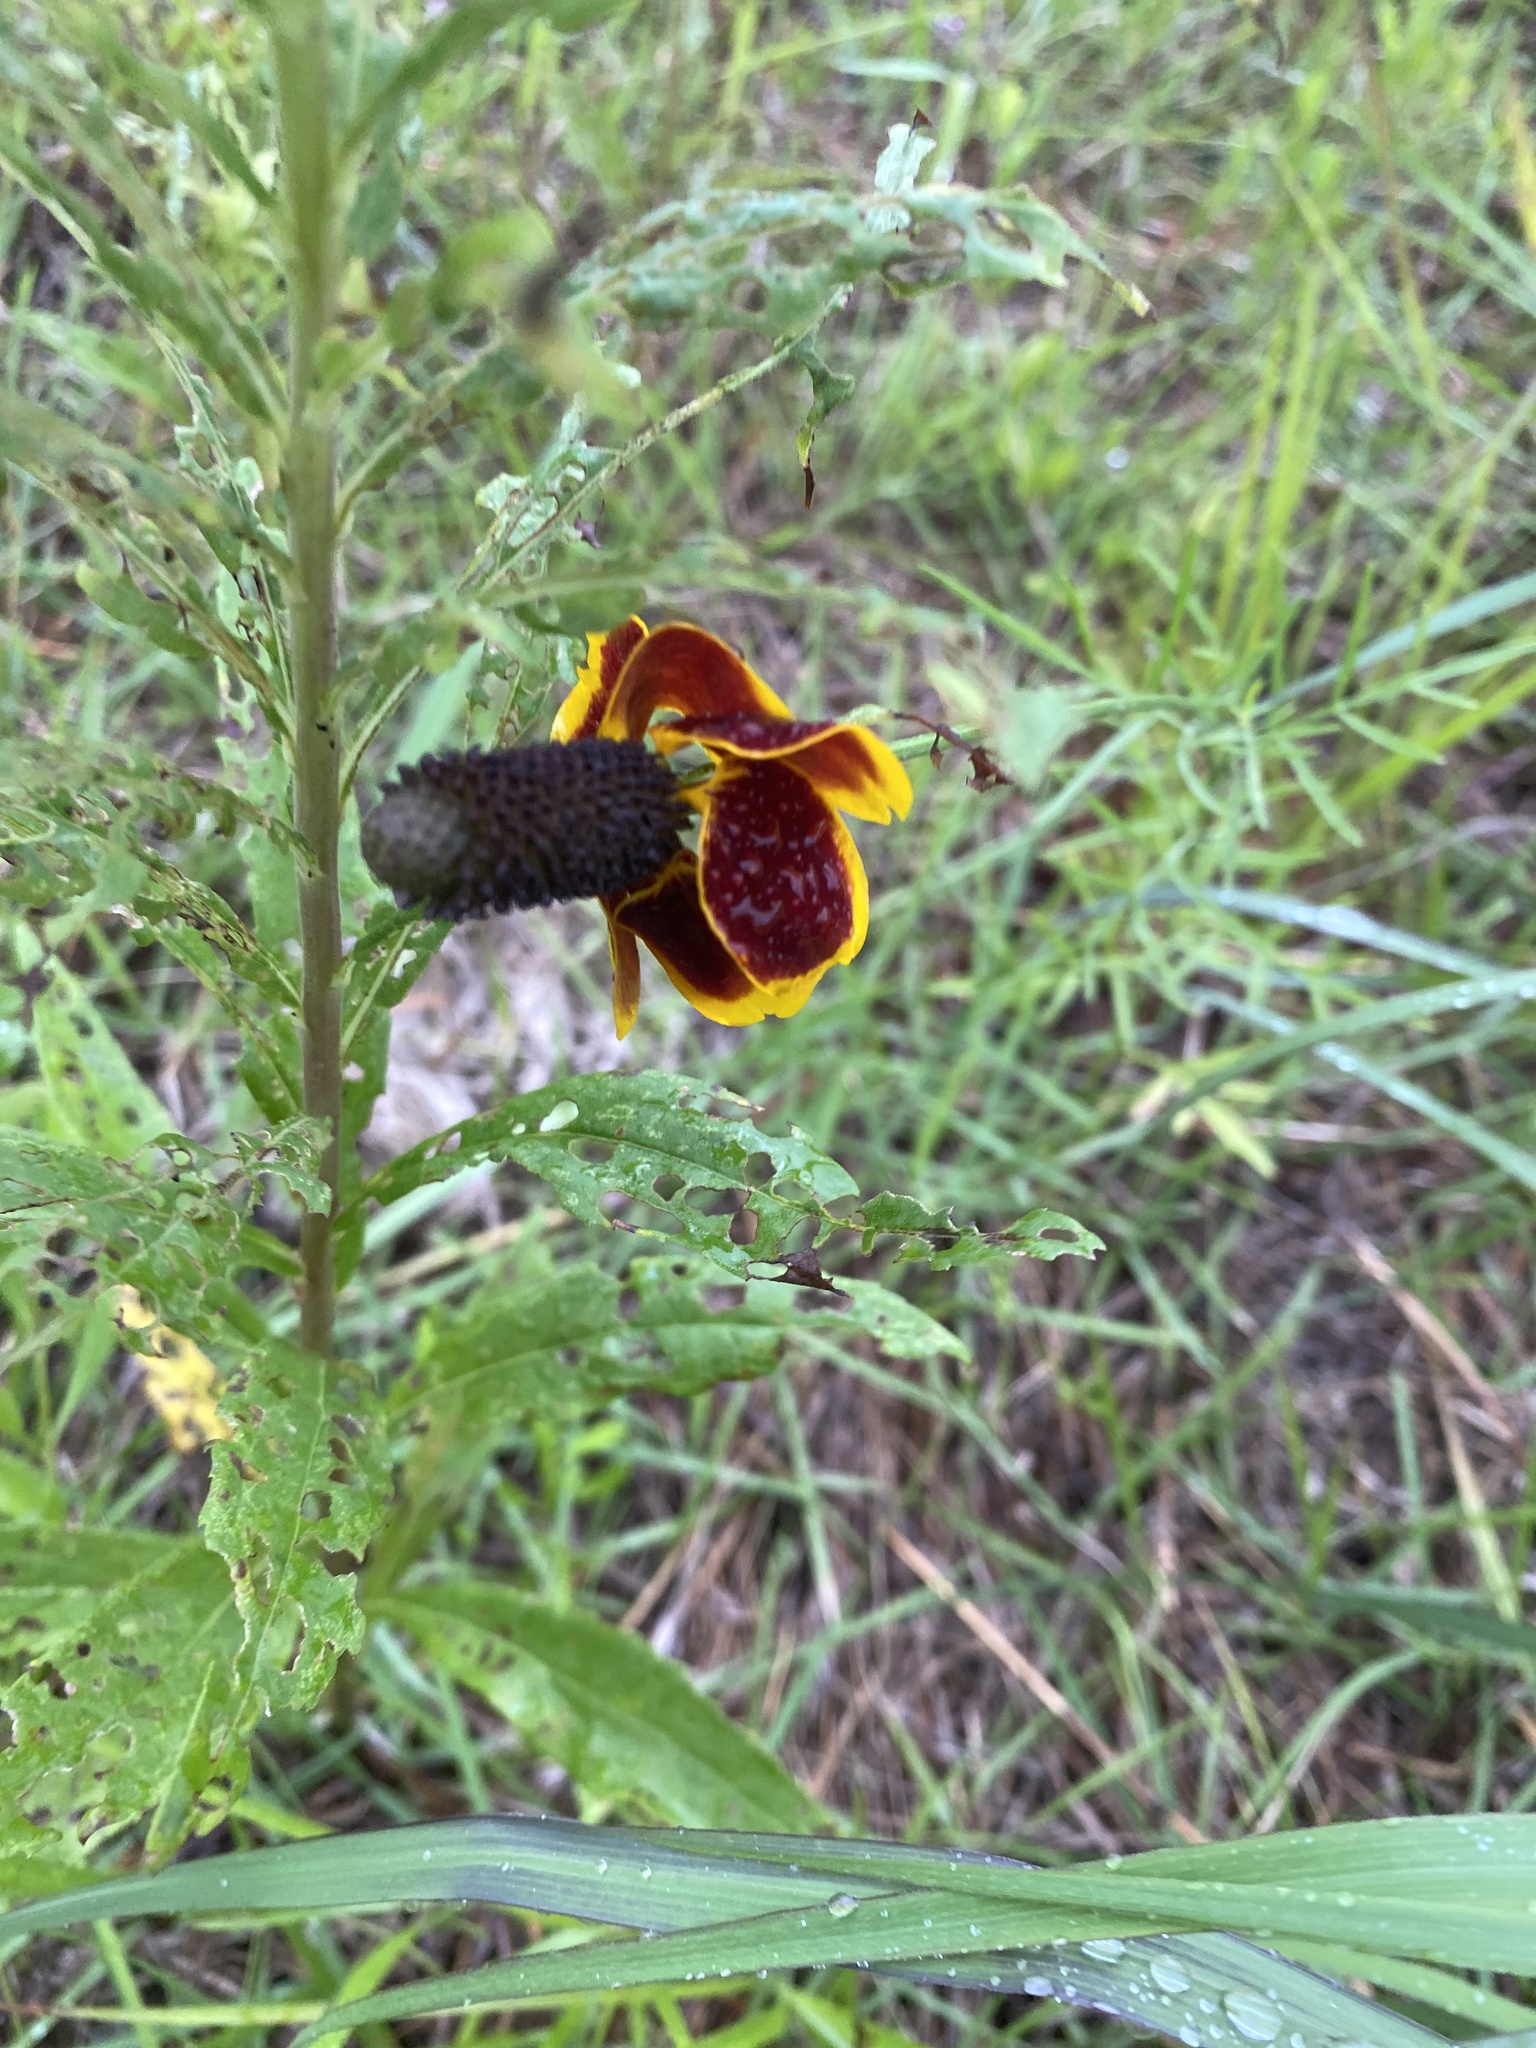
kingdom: Plantae
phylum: Tracheophyta
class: Magnoliopsida
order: Asterales
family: Asteraceae
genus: Ratibida
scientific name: Ratibida columnifera
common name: Prairie coneflower
